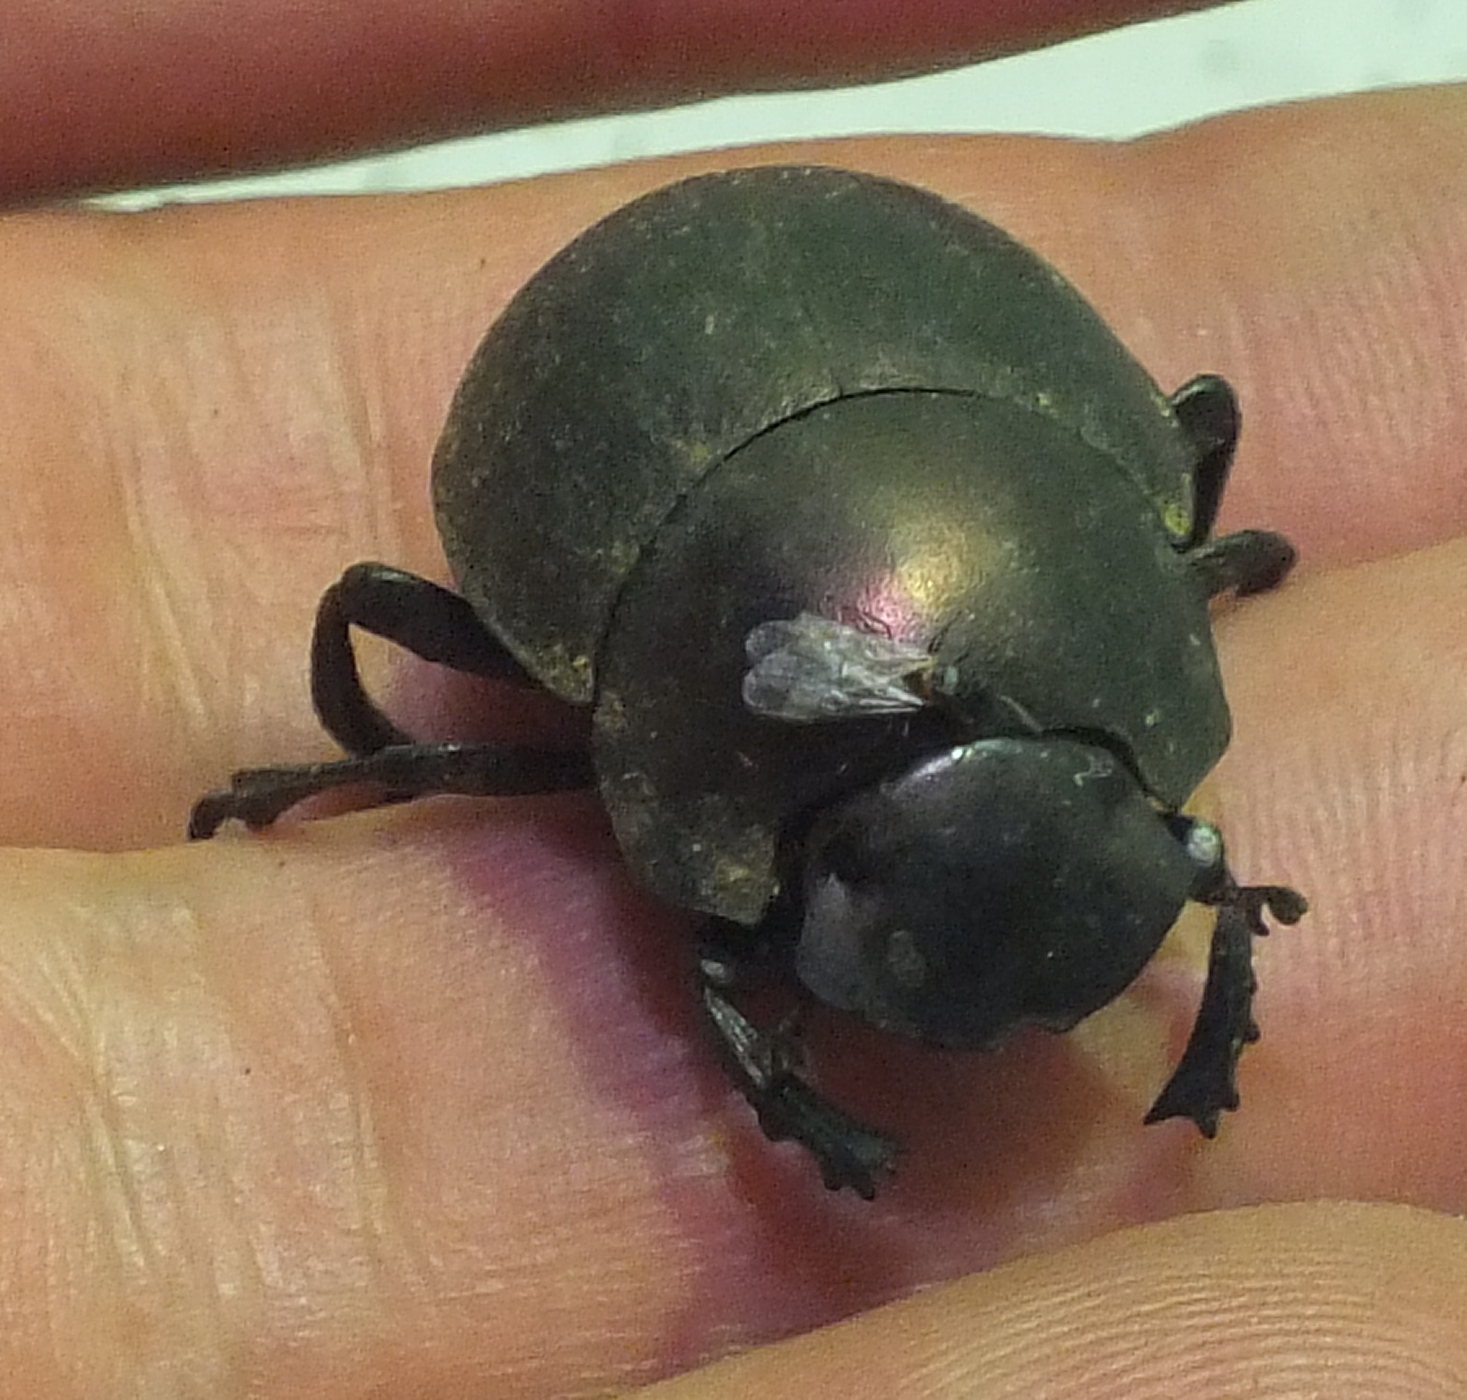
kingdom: Animalia
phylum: Arthropoda
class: Insecta
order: Coleoptera
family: Scarabaeidae
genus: Chalconotus
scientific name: Chalconotus convexus
